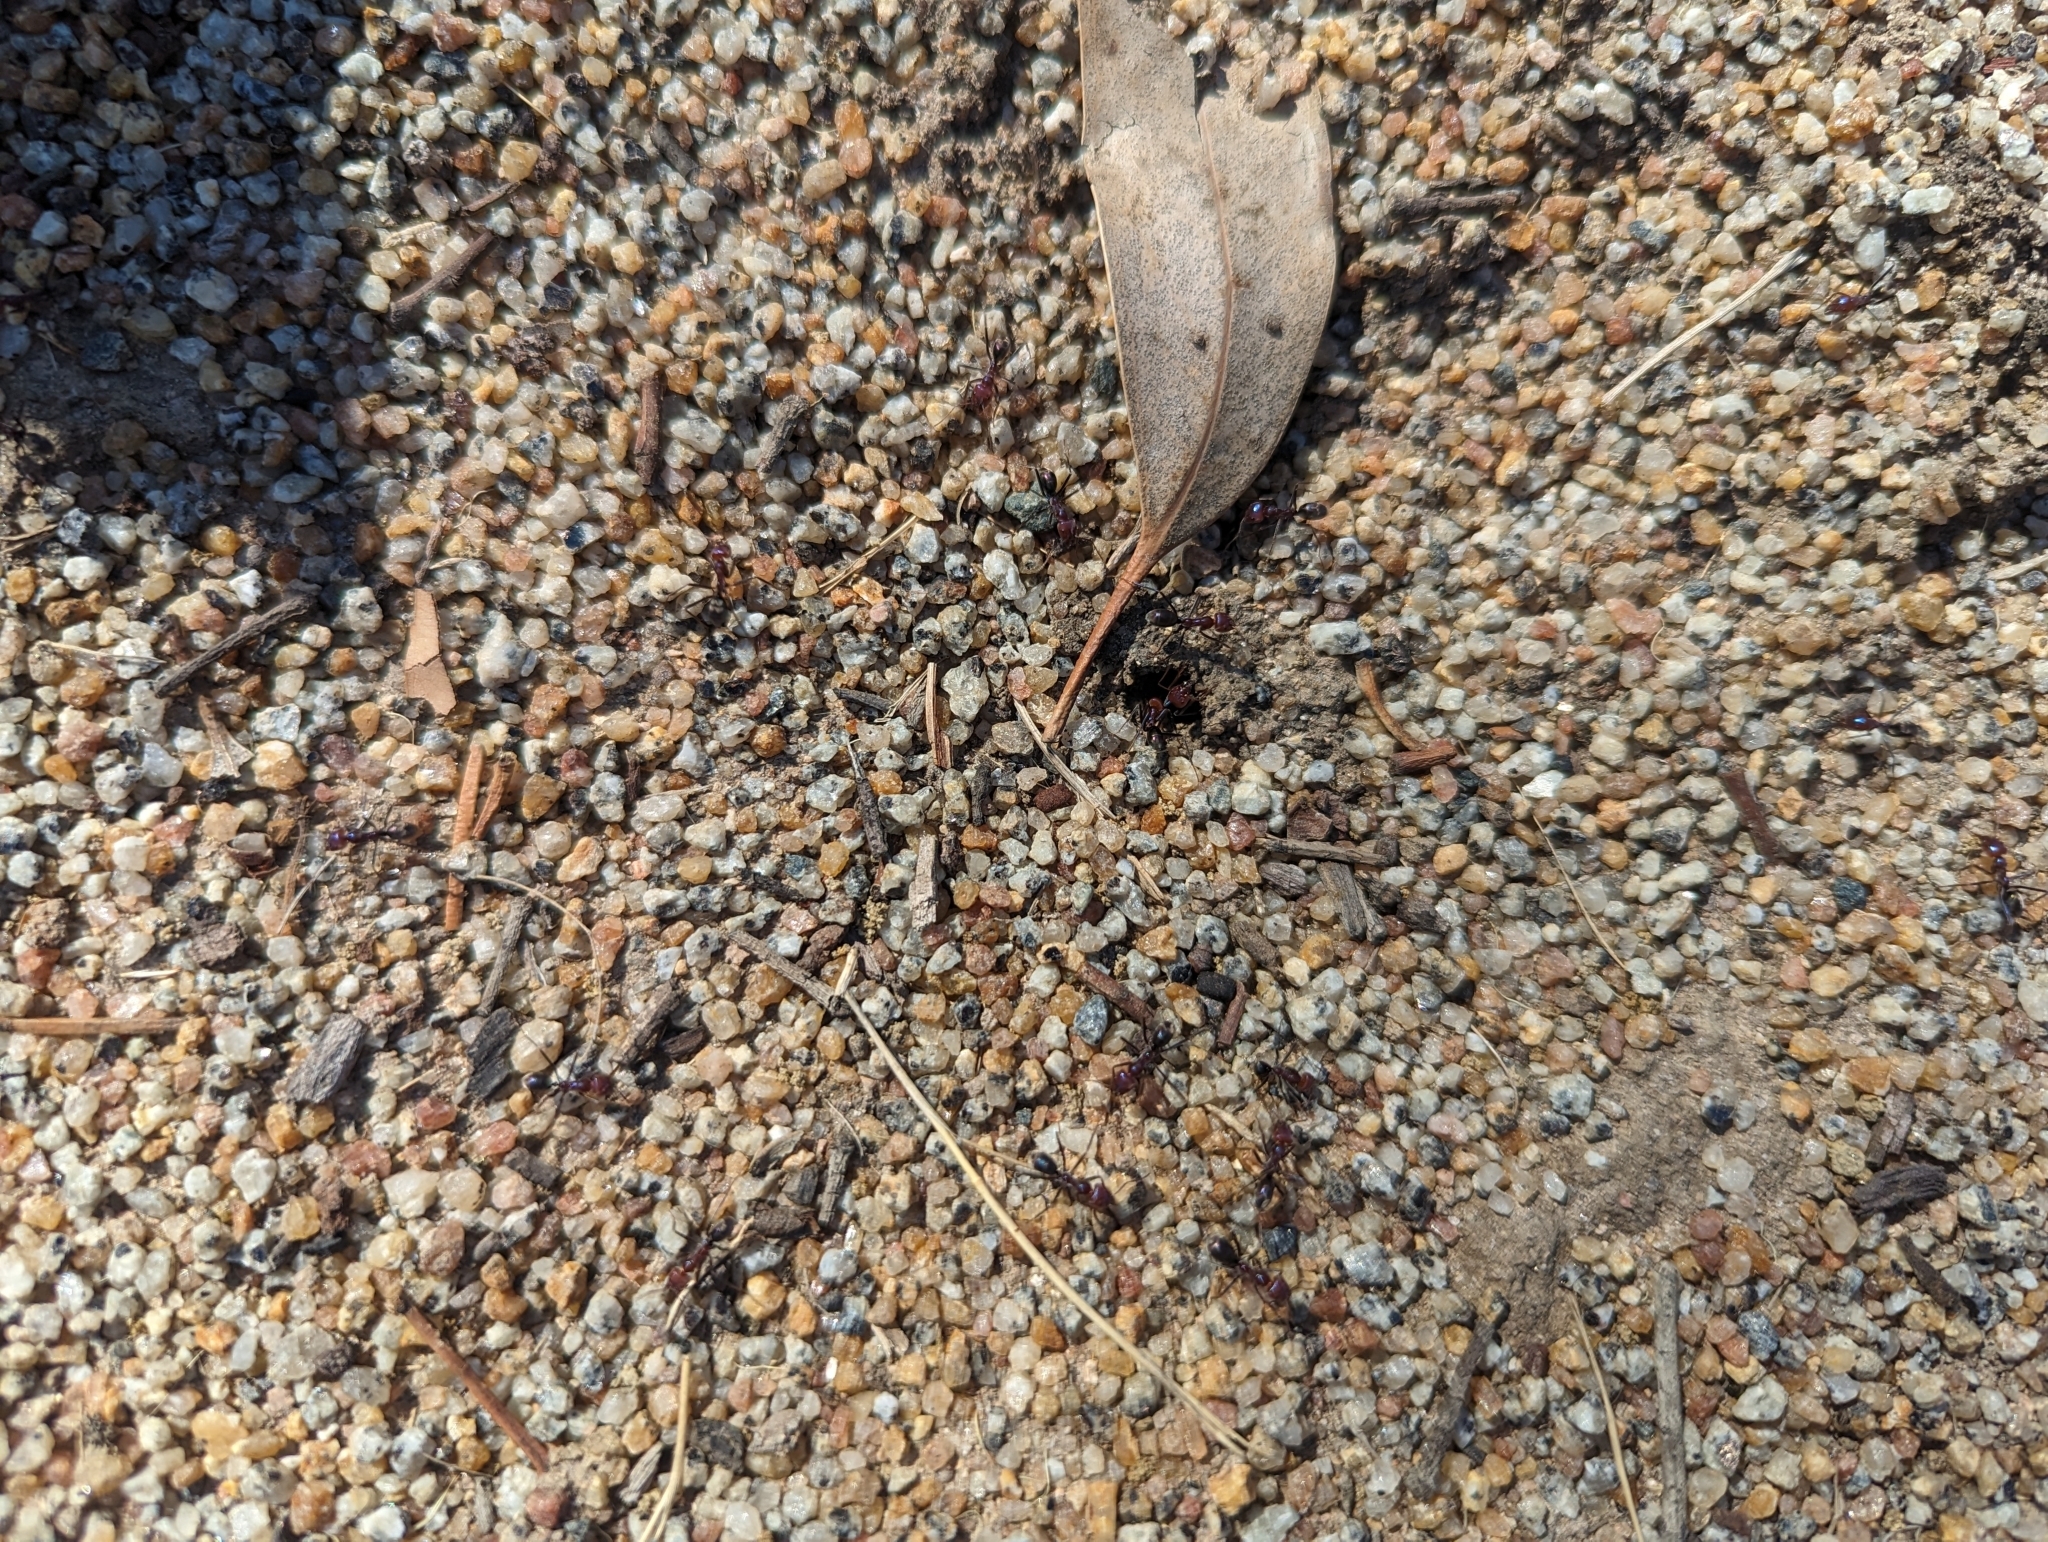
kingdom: Animalia
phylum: Arthropoda
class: Insecta
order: Hymenoptera
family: Formicidae
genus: Iridomyrmex
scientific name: Iridomyrmex purpureus
